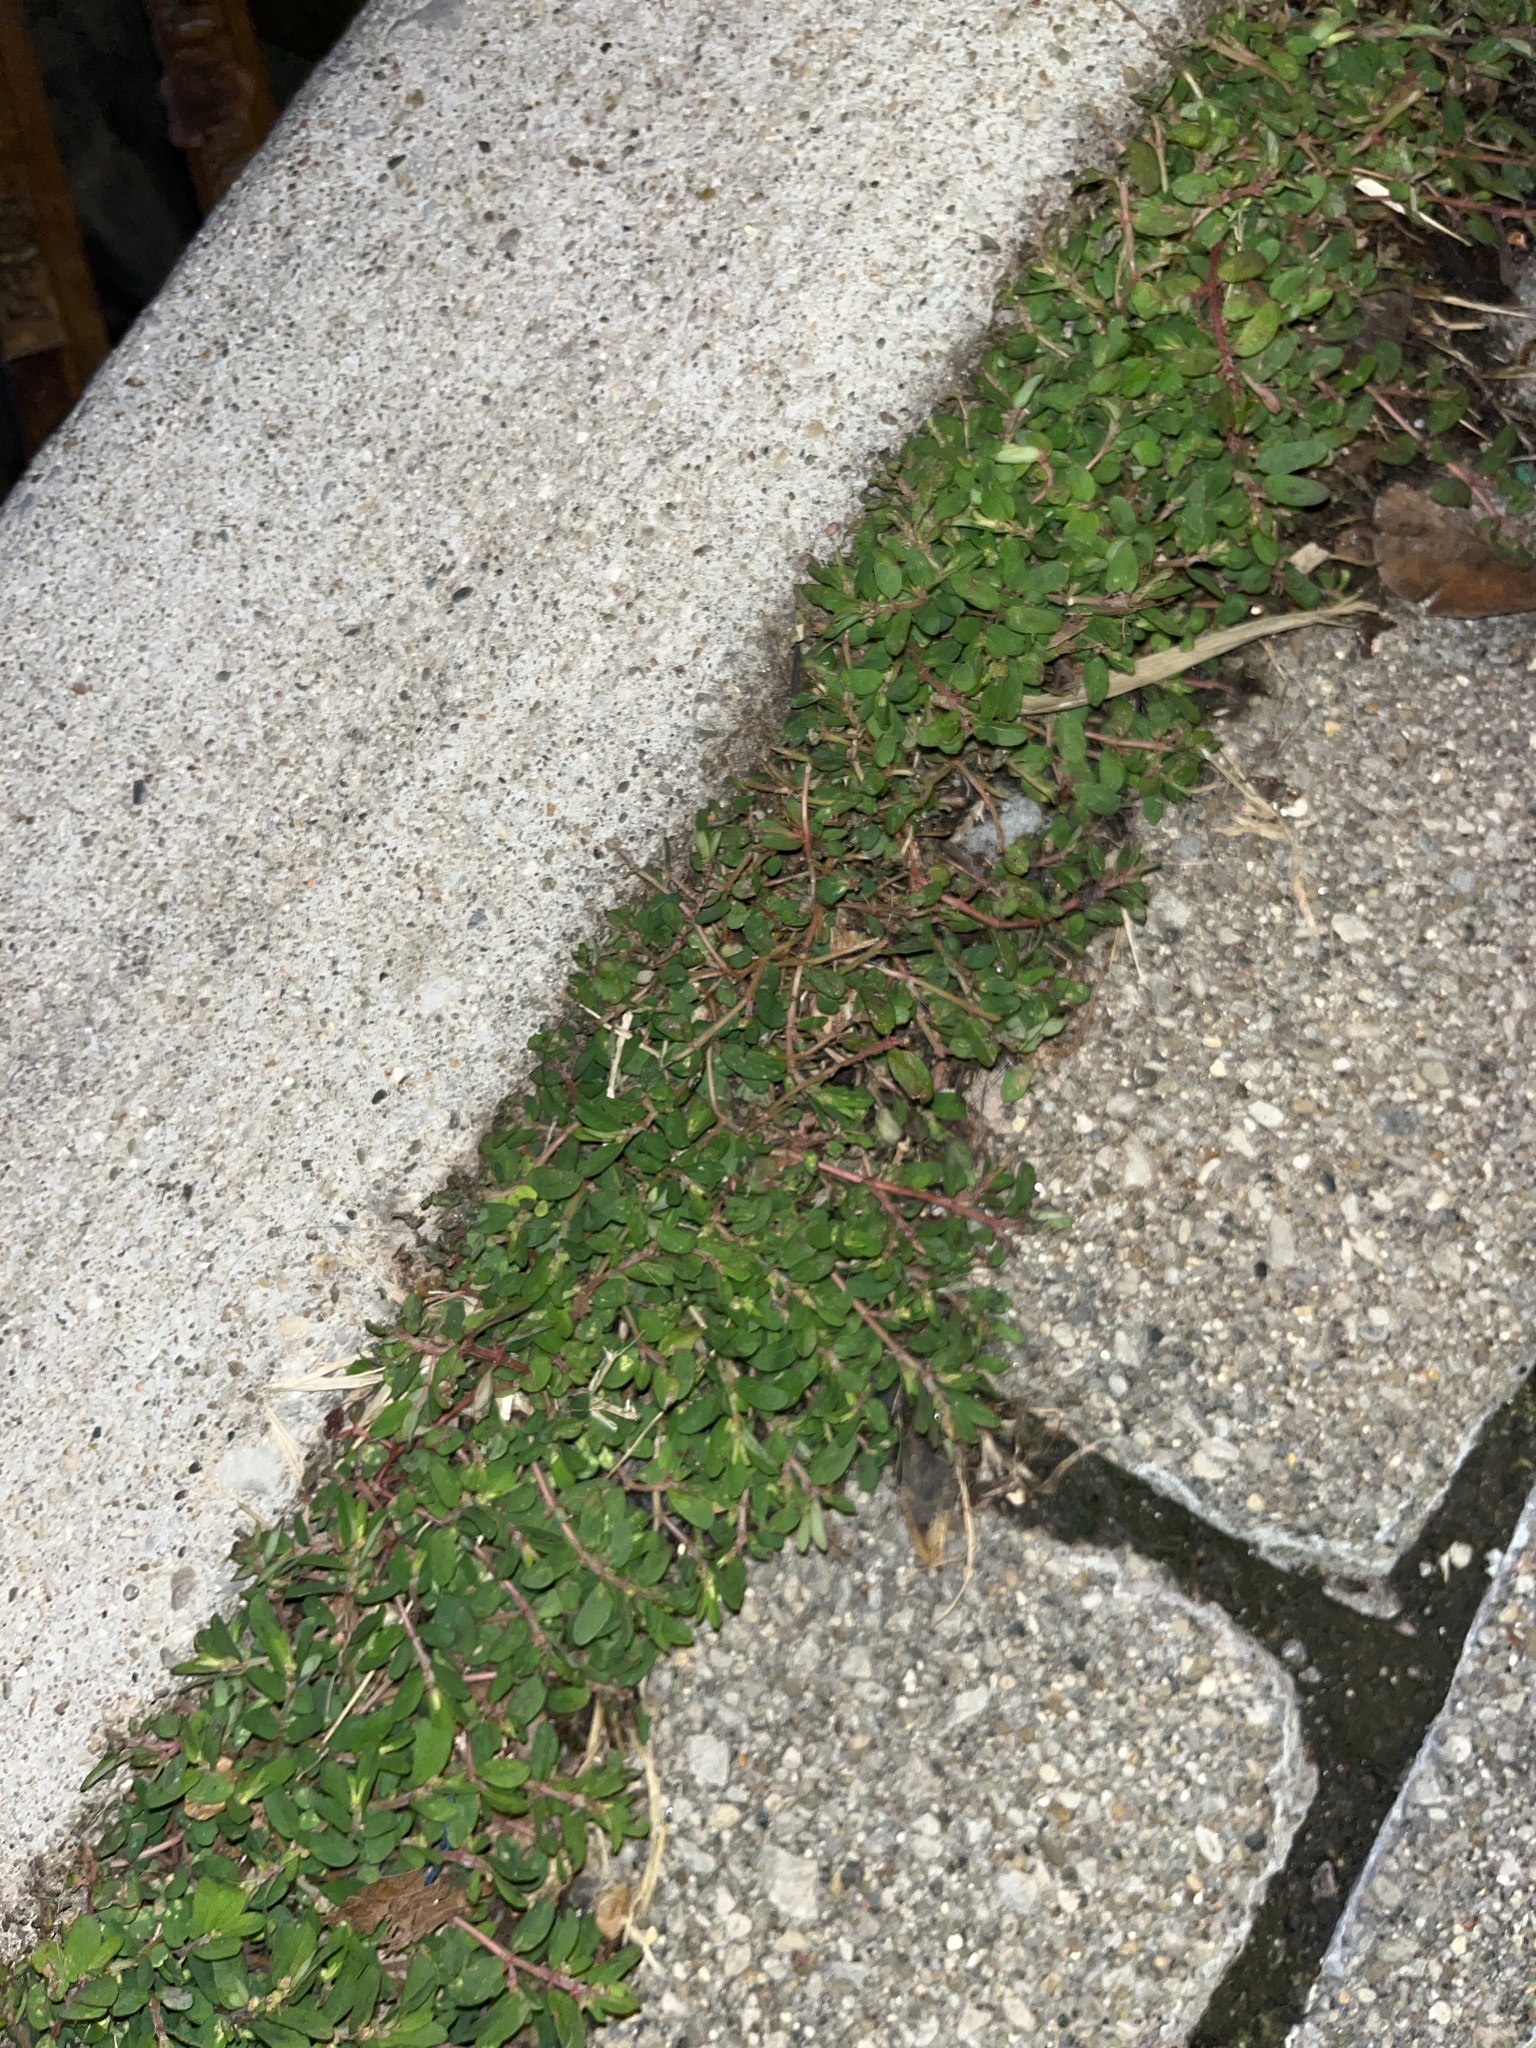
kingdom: Plantae
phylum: Tracheophyta
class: Magnoliopsida
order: Malpighiales
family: Euphorbiaceae
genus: Euphorbia
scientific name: Euphorbia maculata
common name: Spotted spurge
